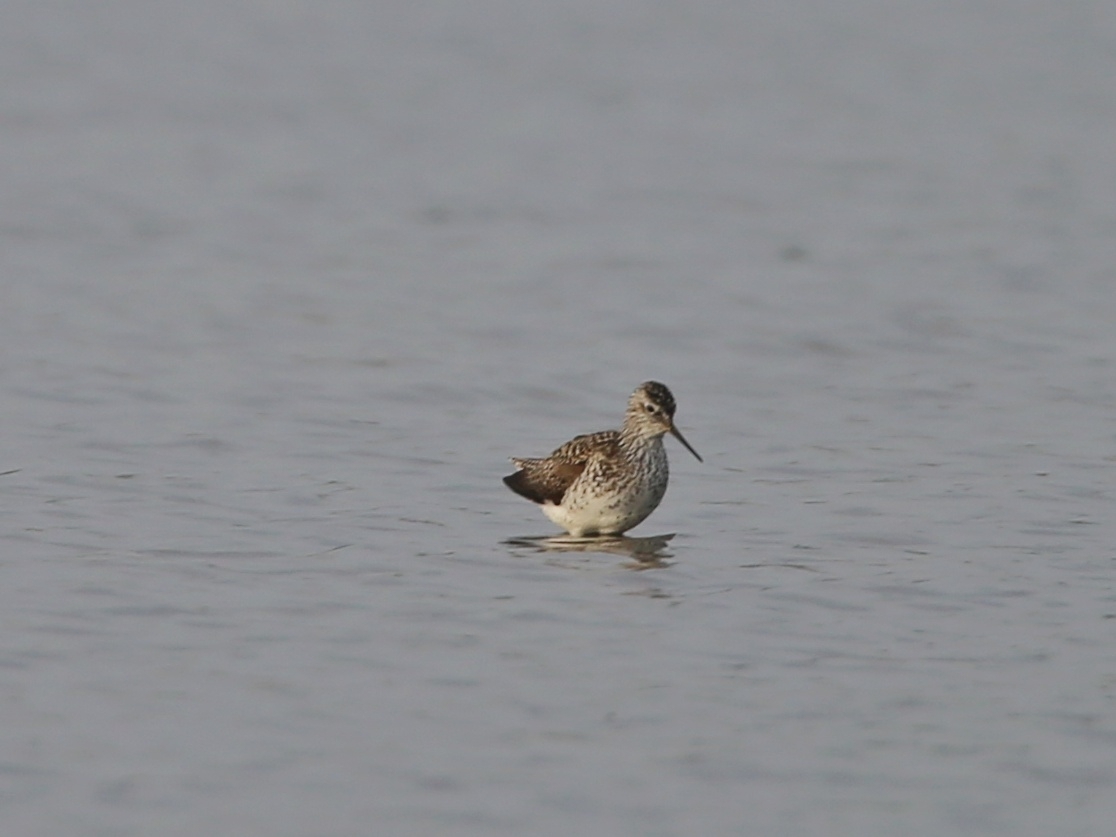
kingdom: Animalia
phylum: Chordata
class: Aves
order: Charadriiformes
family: Scolopacidae
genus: Tringa
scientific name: Tringa stagnatilis
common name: Marsh sandpiper
